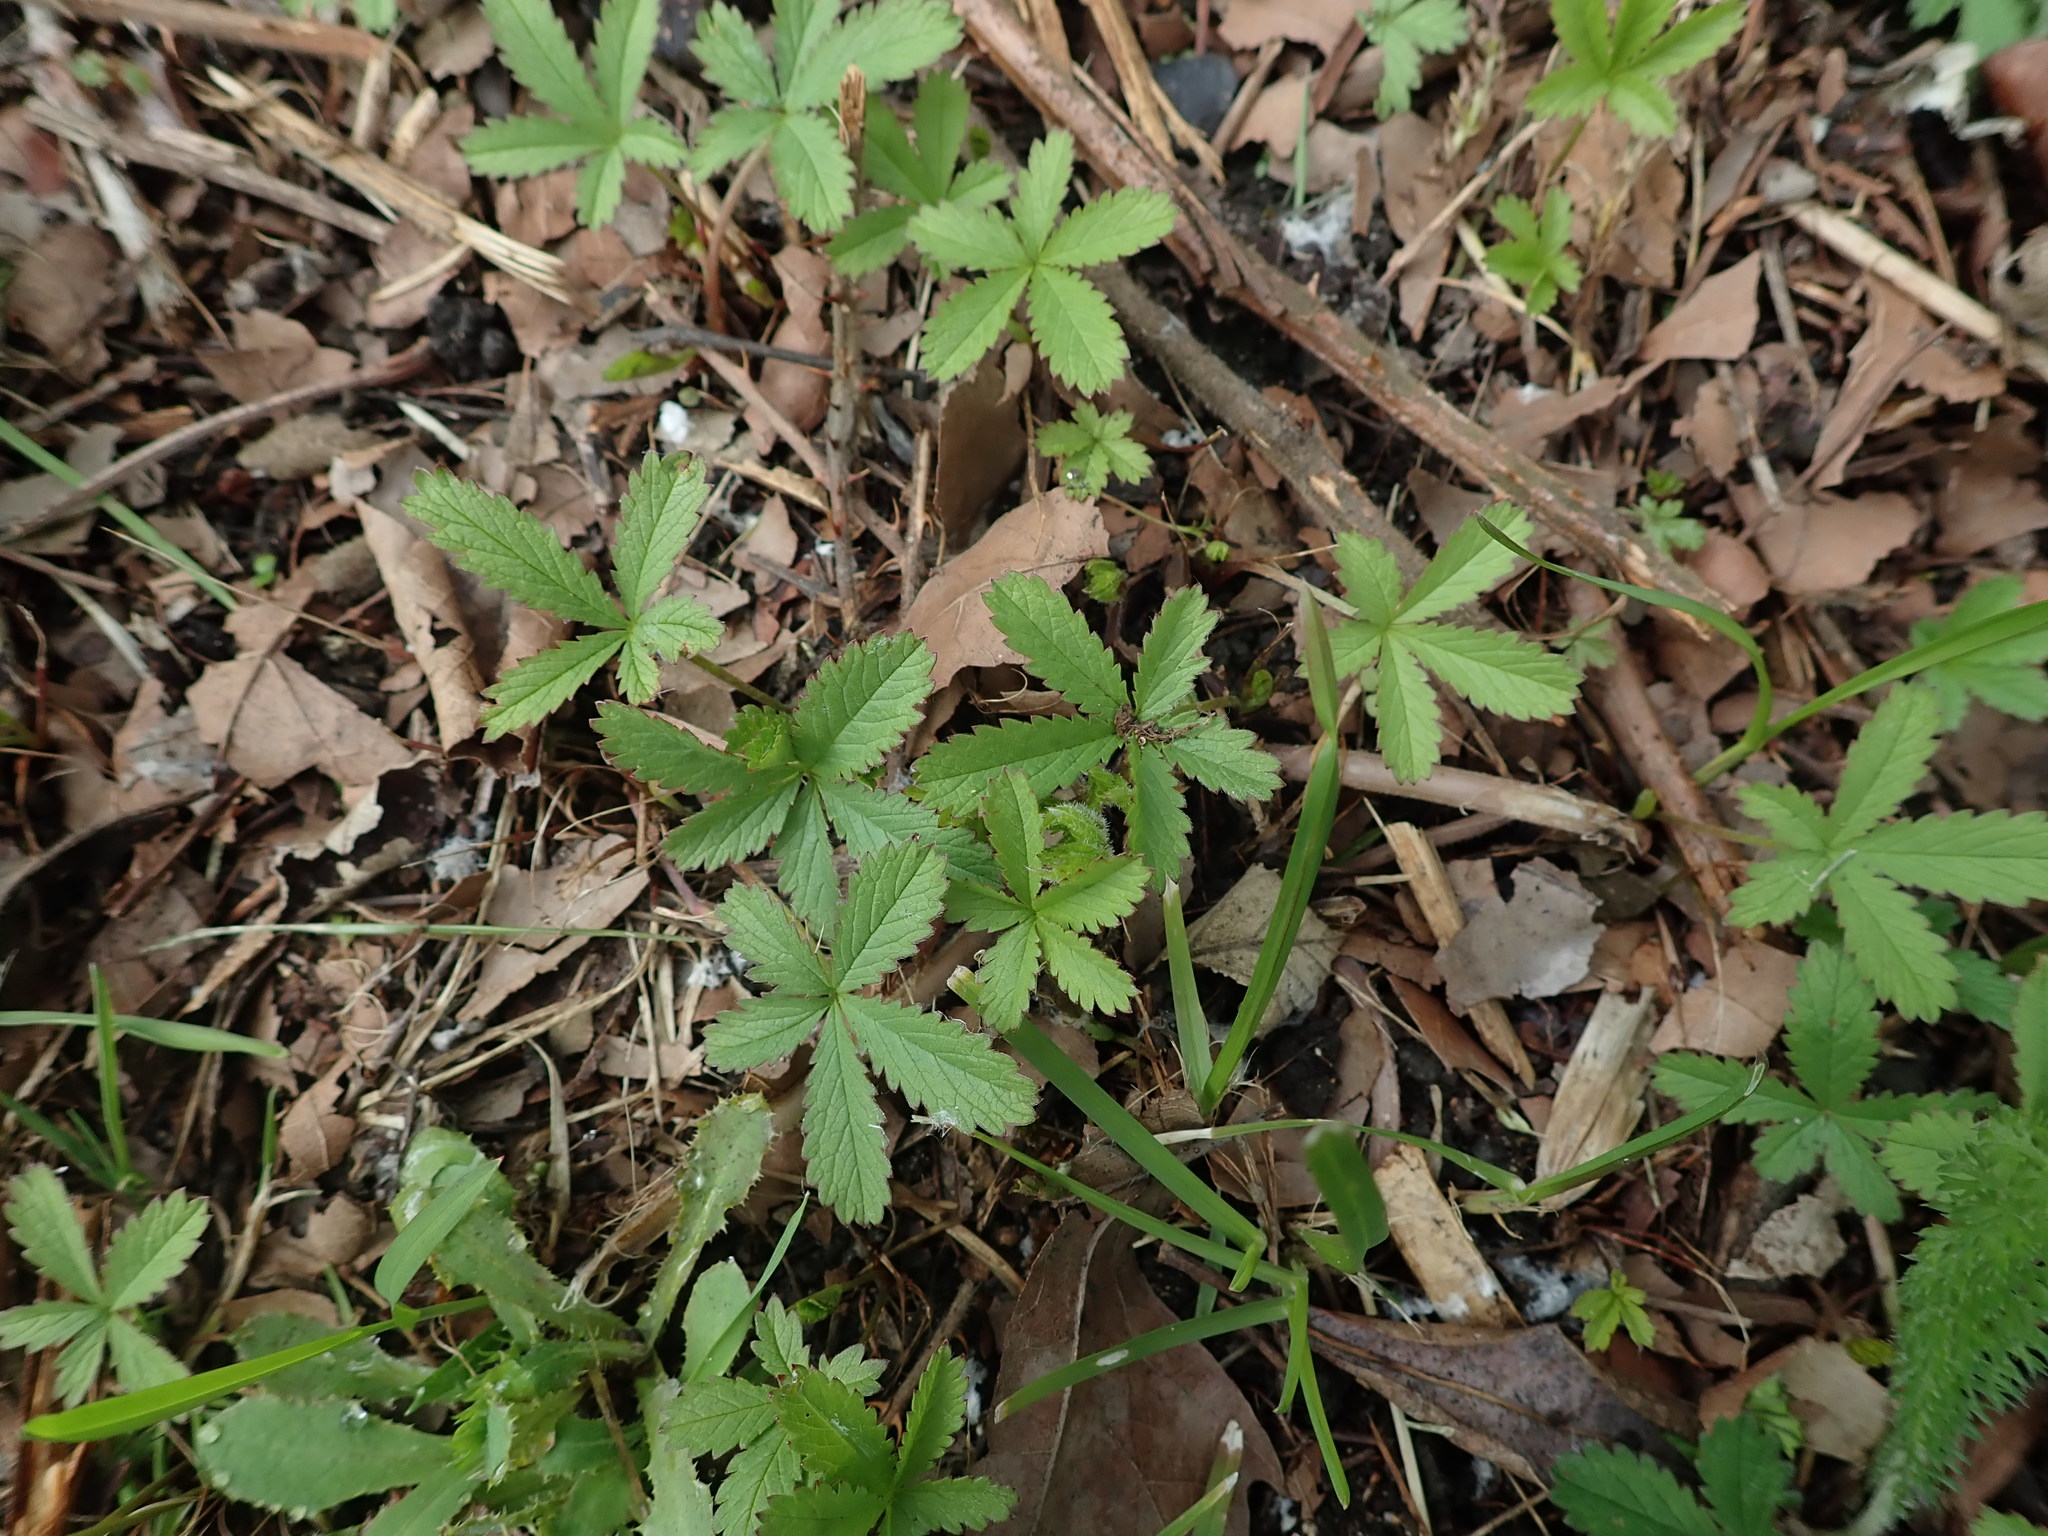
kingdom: Plantae
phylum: Tracheophyta
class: Magnoliopsida
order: Rosales
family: Rosaceae
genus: Potentilla
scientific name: Potentilla reptans
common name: Creeping cinquefoil
